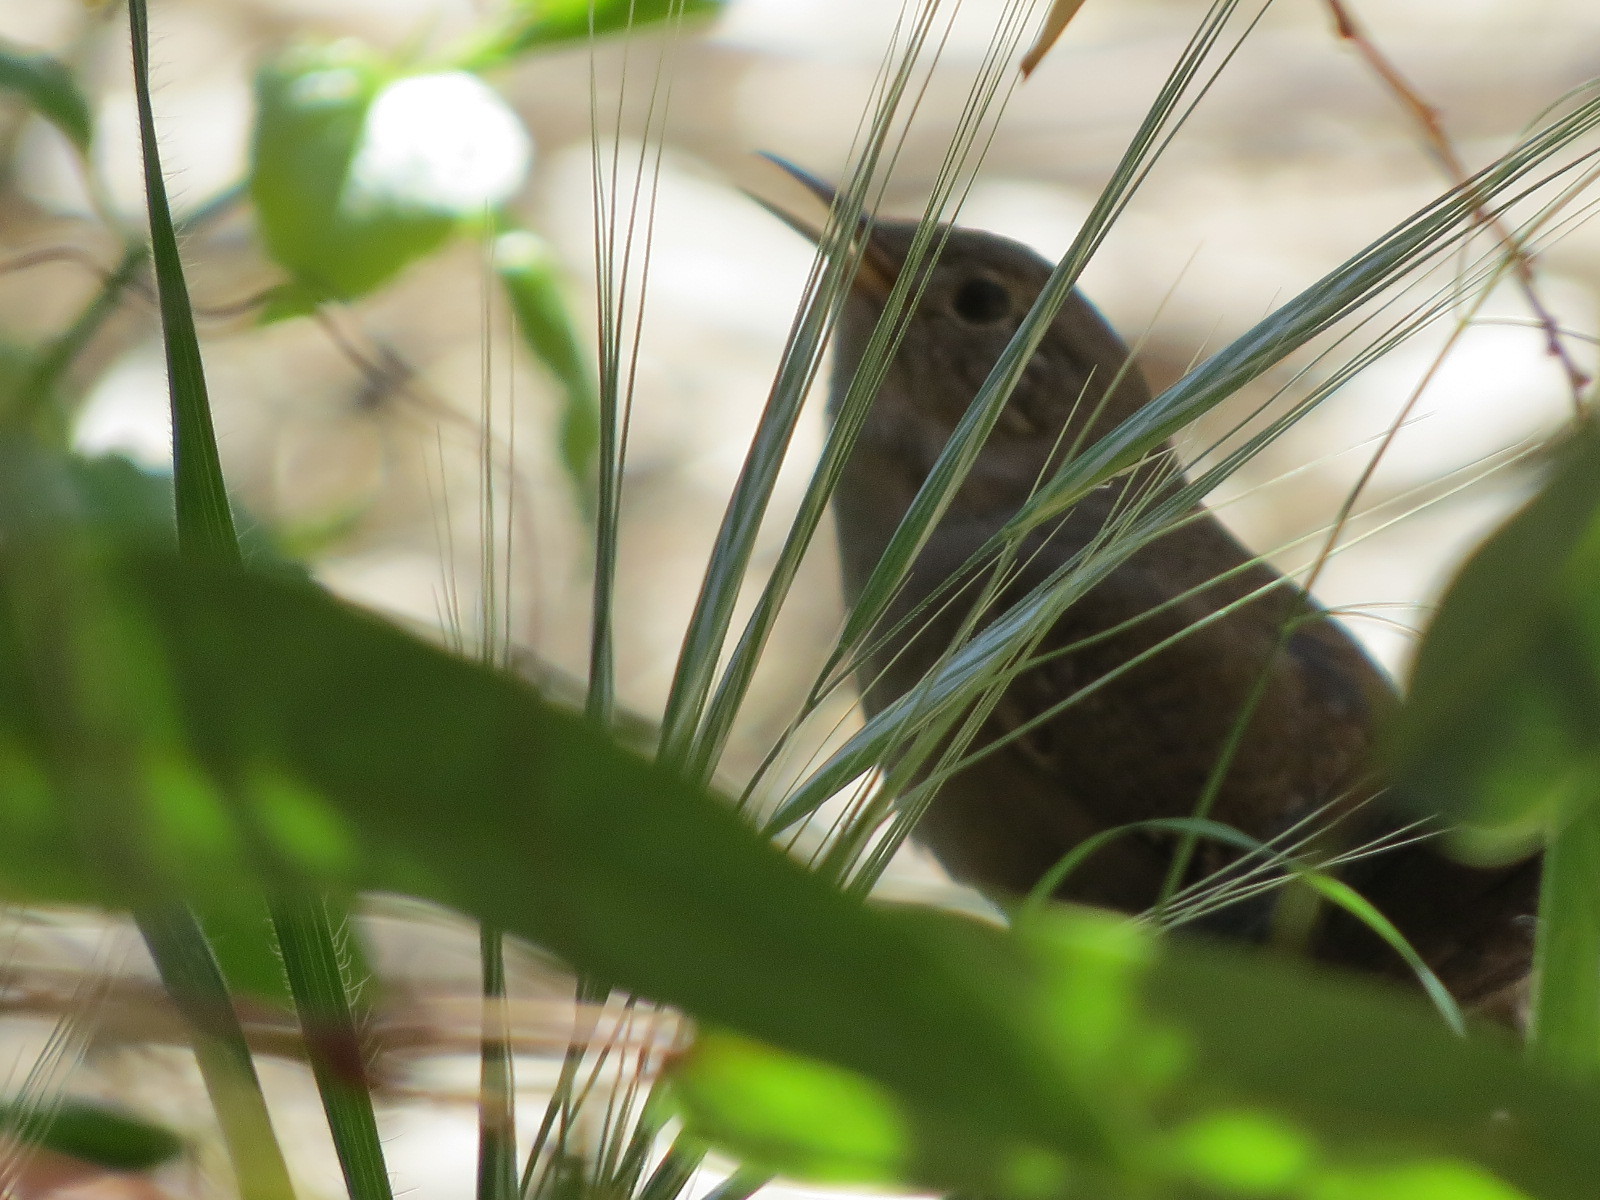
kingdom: Animalia
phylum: Chordata
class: Aves
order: Passeriformes
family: Troglodytidae
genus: Troglodytes
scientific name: Troglodytes aedon
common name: House wren
